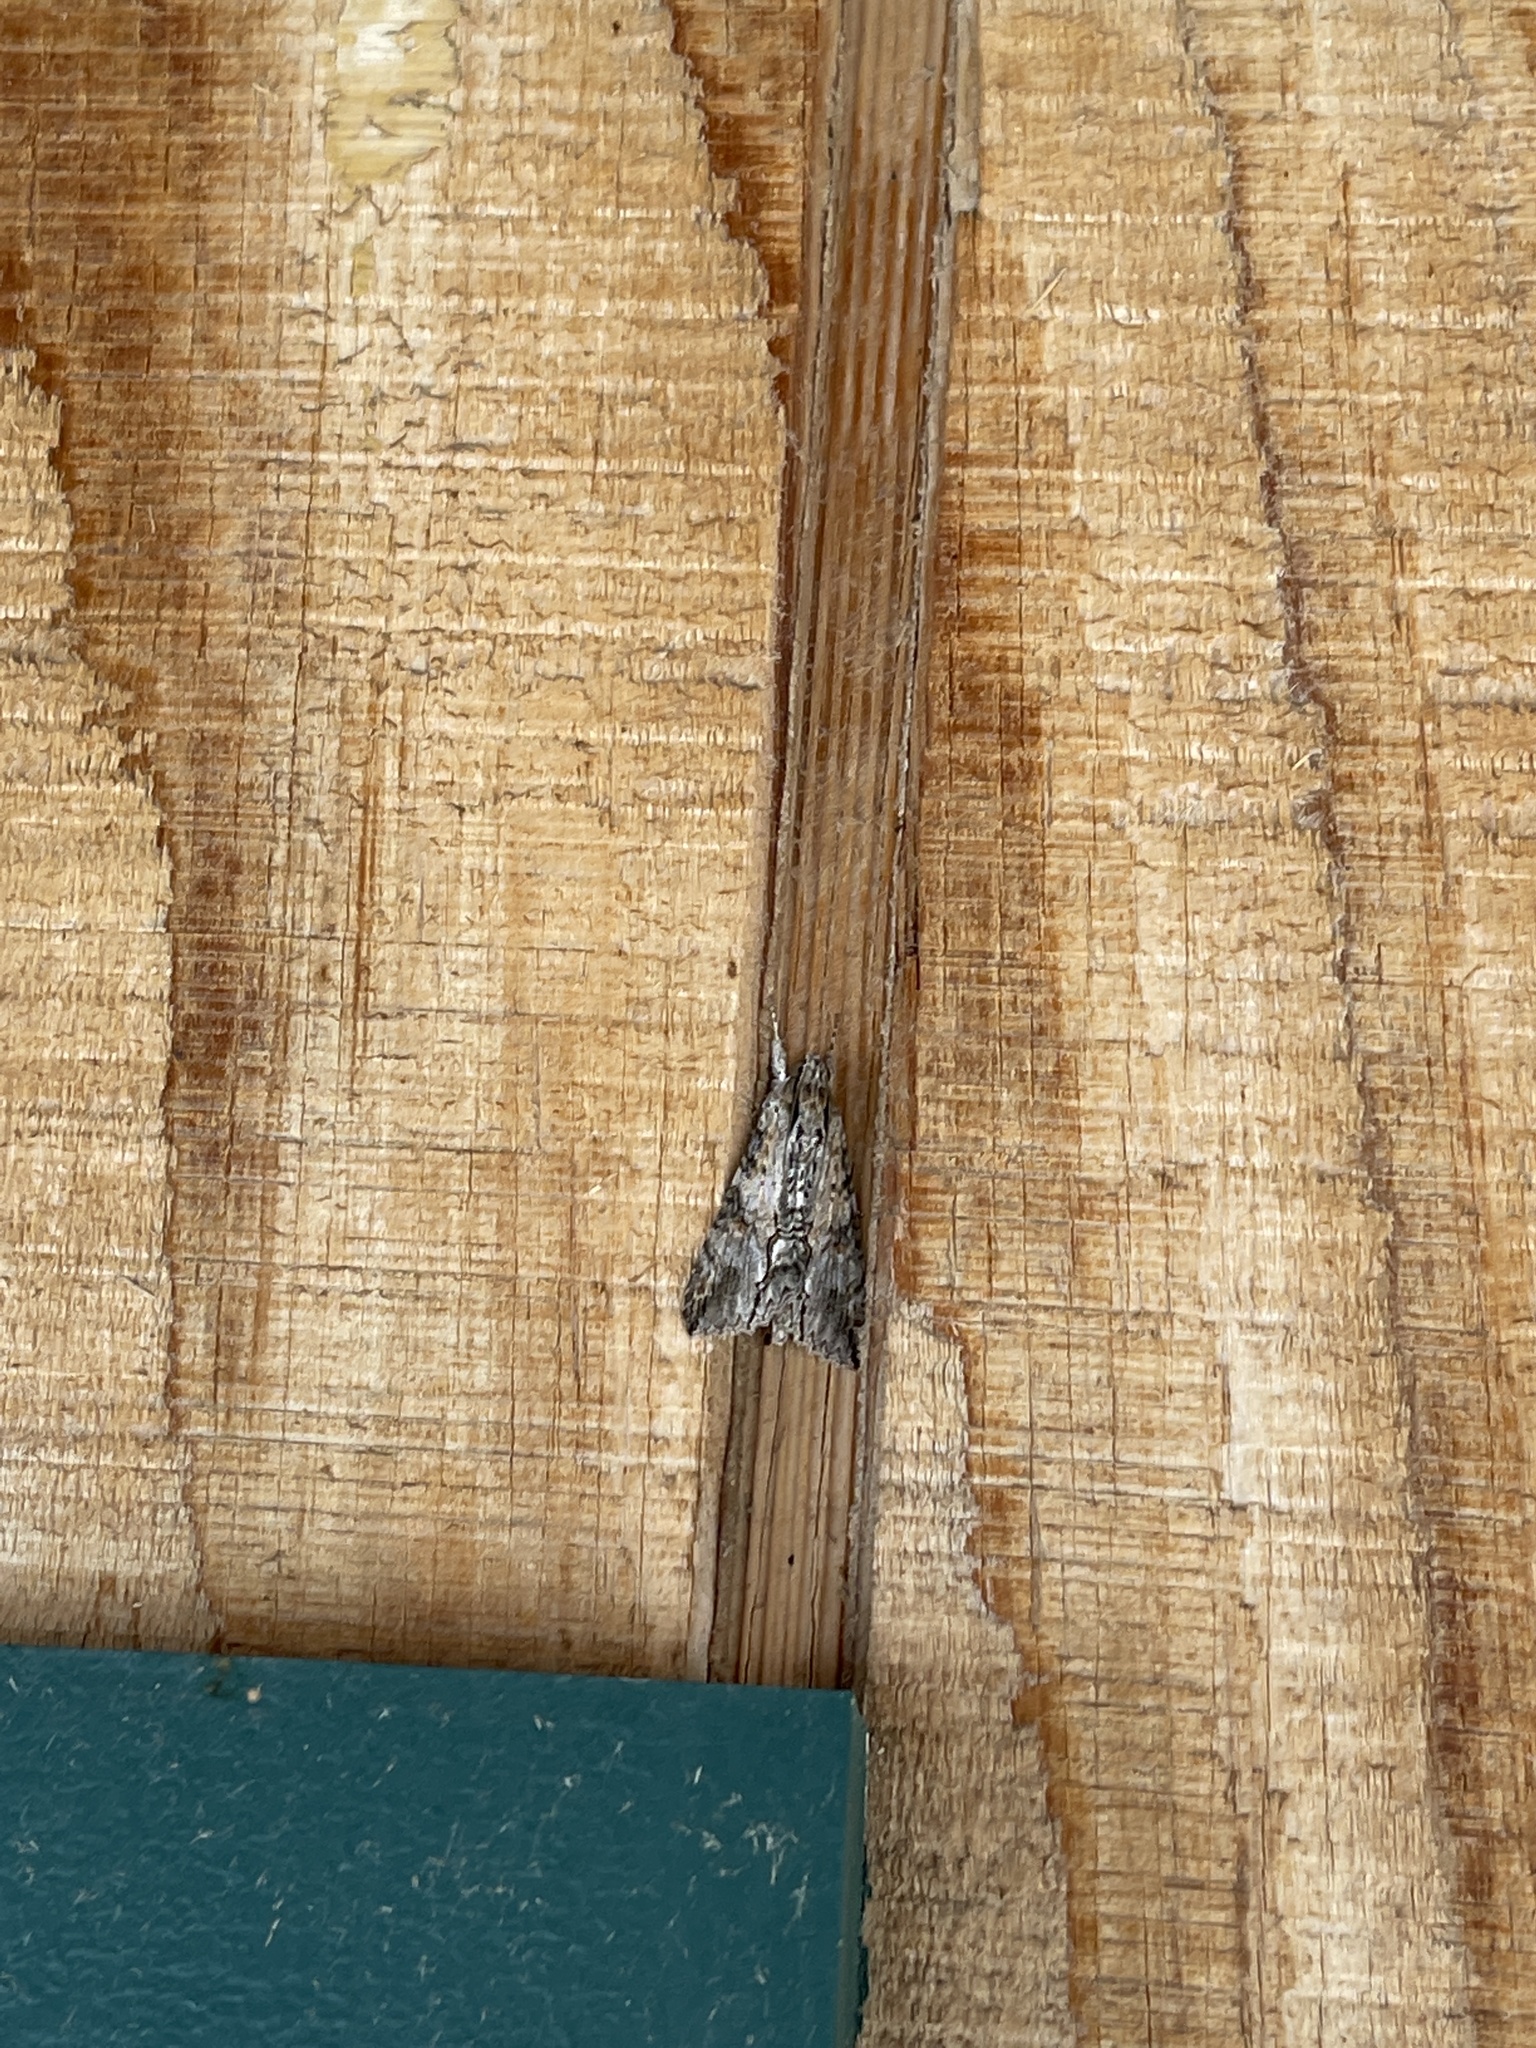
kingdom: Animalia
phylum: Arthropoda
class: Insecta
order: Lepidoptera
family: Erebidae
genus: Melipotis
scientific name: Melipotis acontioides
